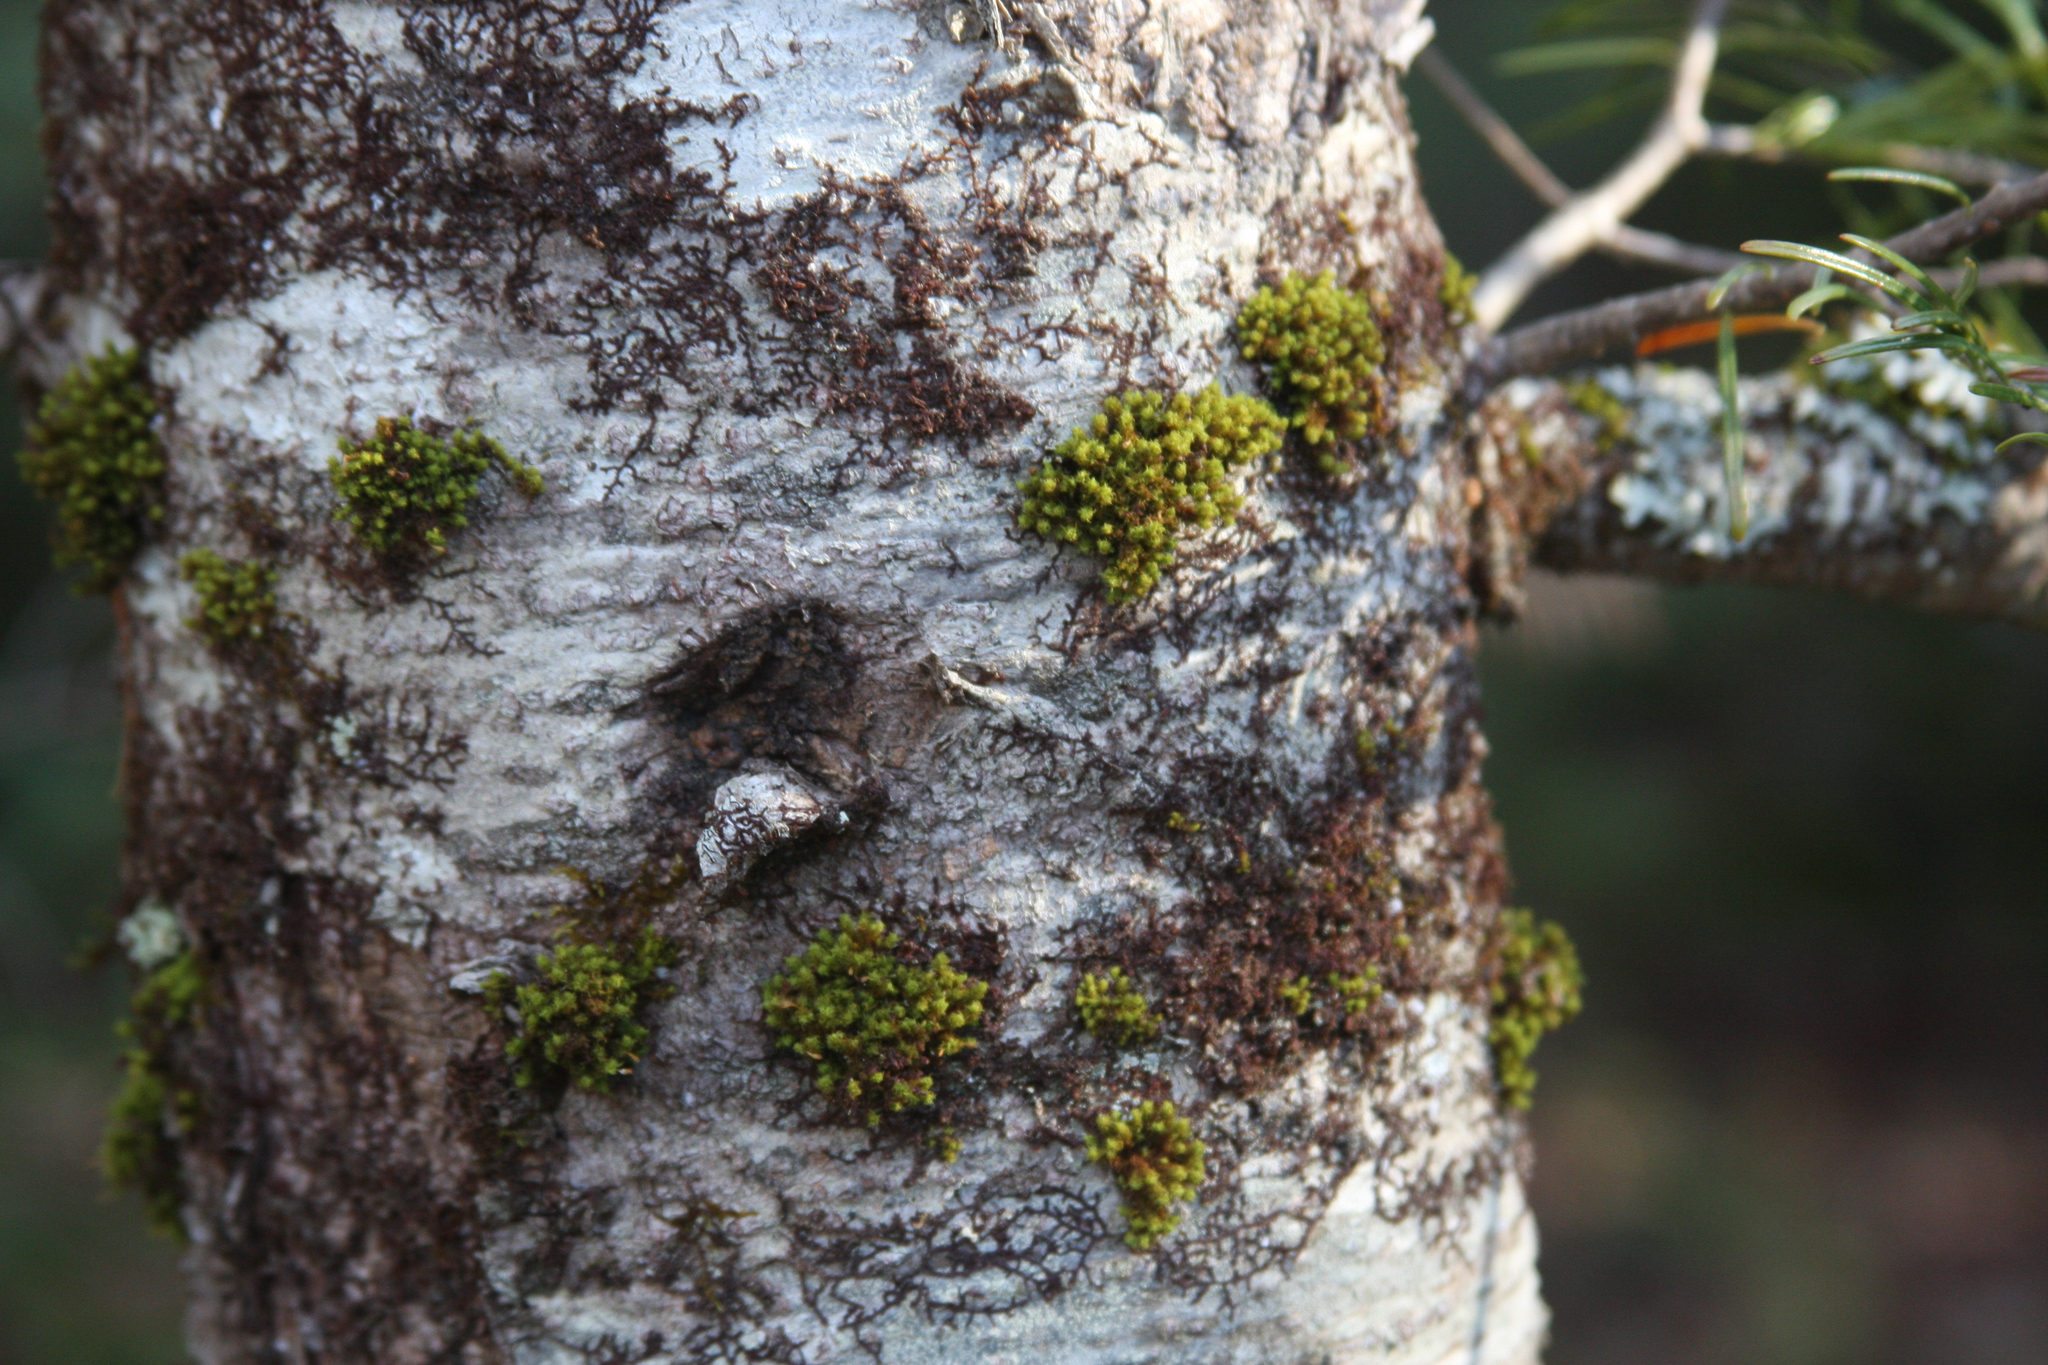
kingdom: Plantae
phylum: Bryophyta
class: Bryopsida
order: Orthotrichales
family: Orthotrichaceae
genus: Ulota
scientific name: Ulota crispa
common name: Crisped pincushion moss
